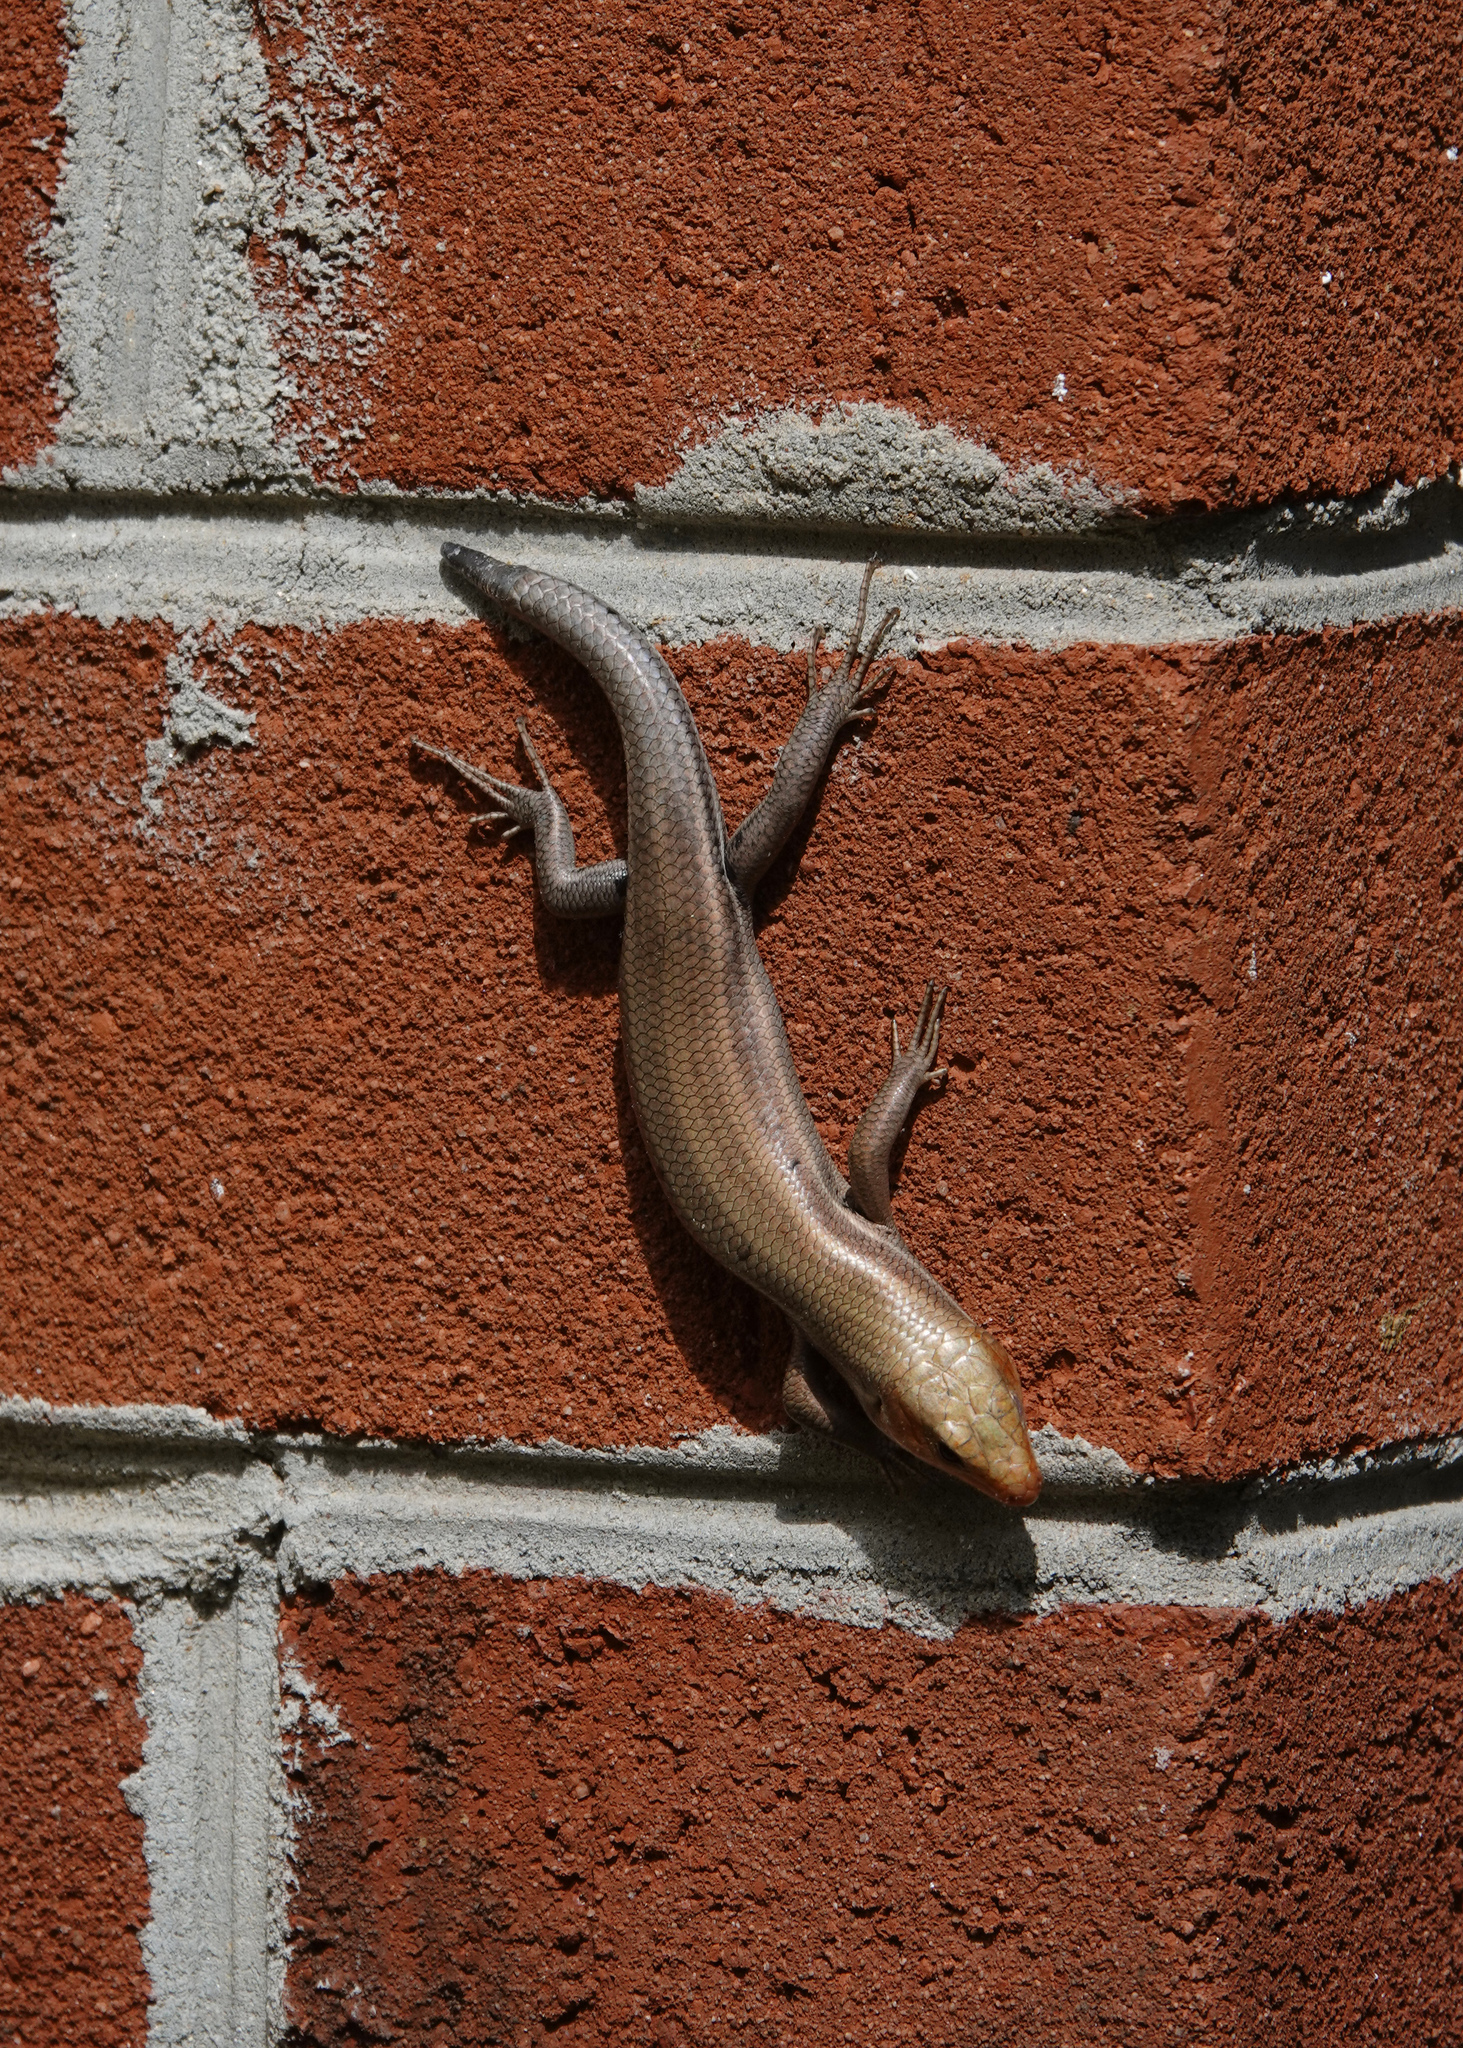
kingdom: Animalia
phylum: Chordata
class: Squamata
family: Scincidae
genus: Plestiodon
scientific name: Plestiodon fasciatus
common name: Five-lined skink
